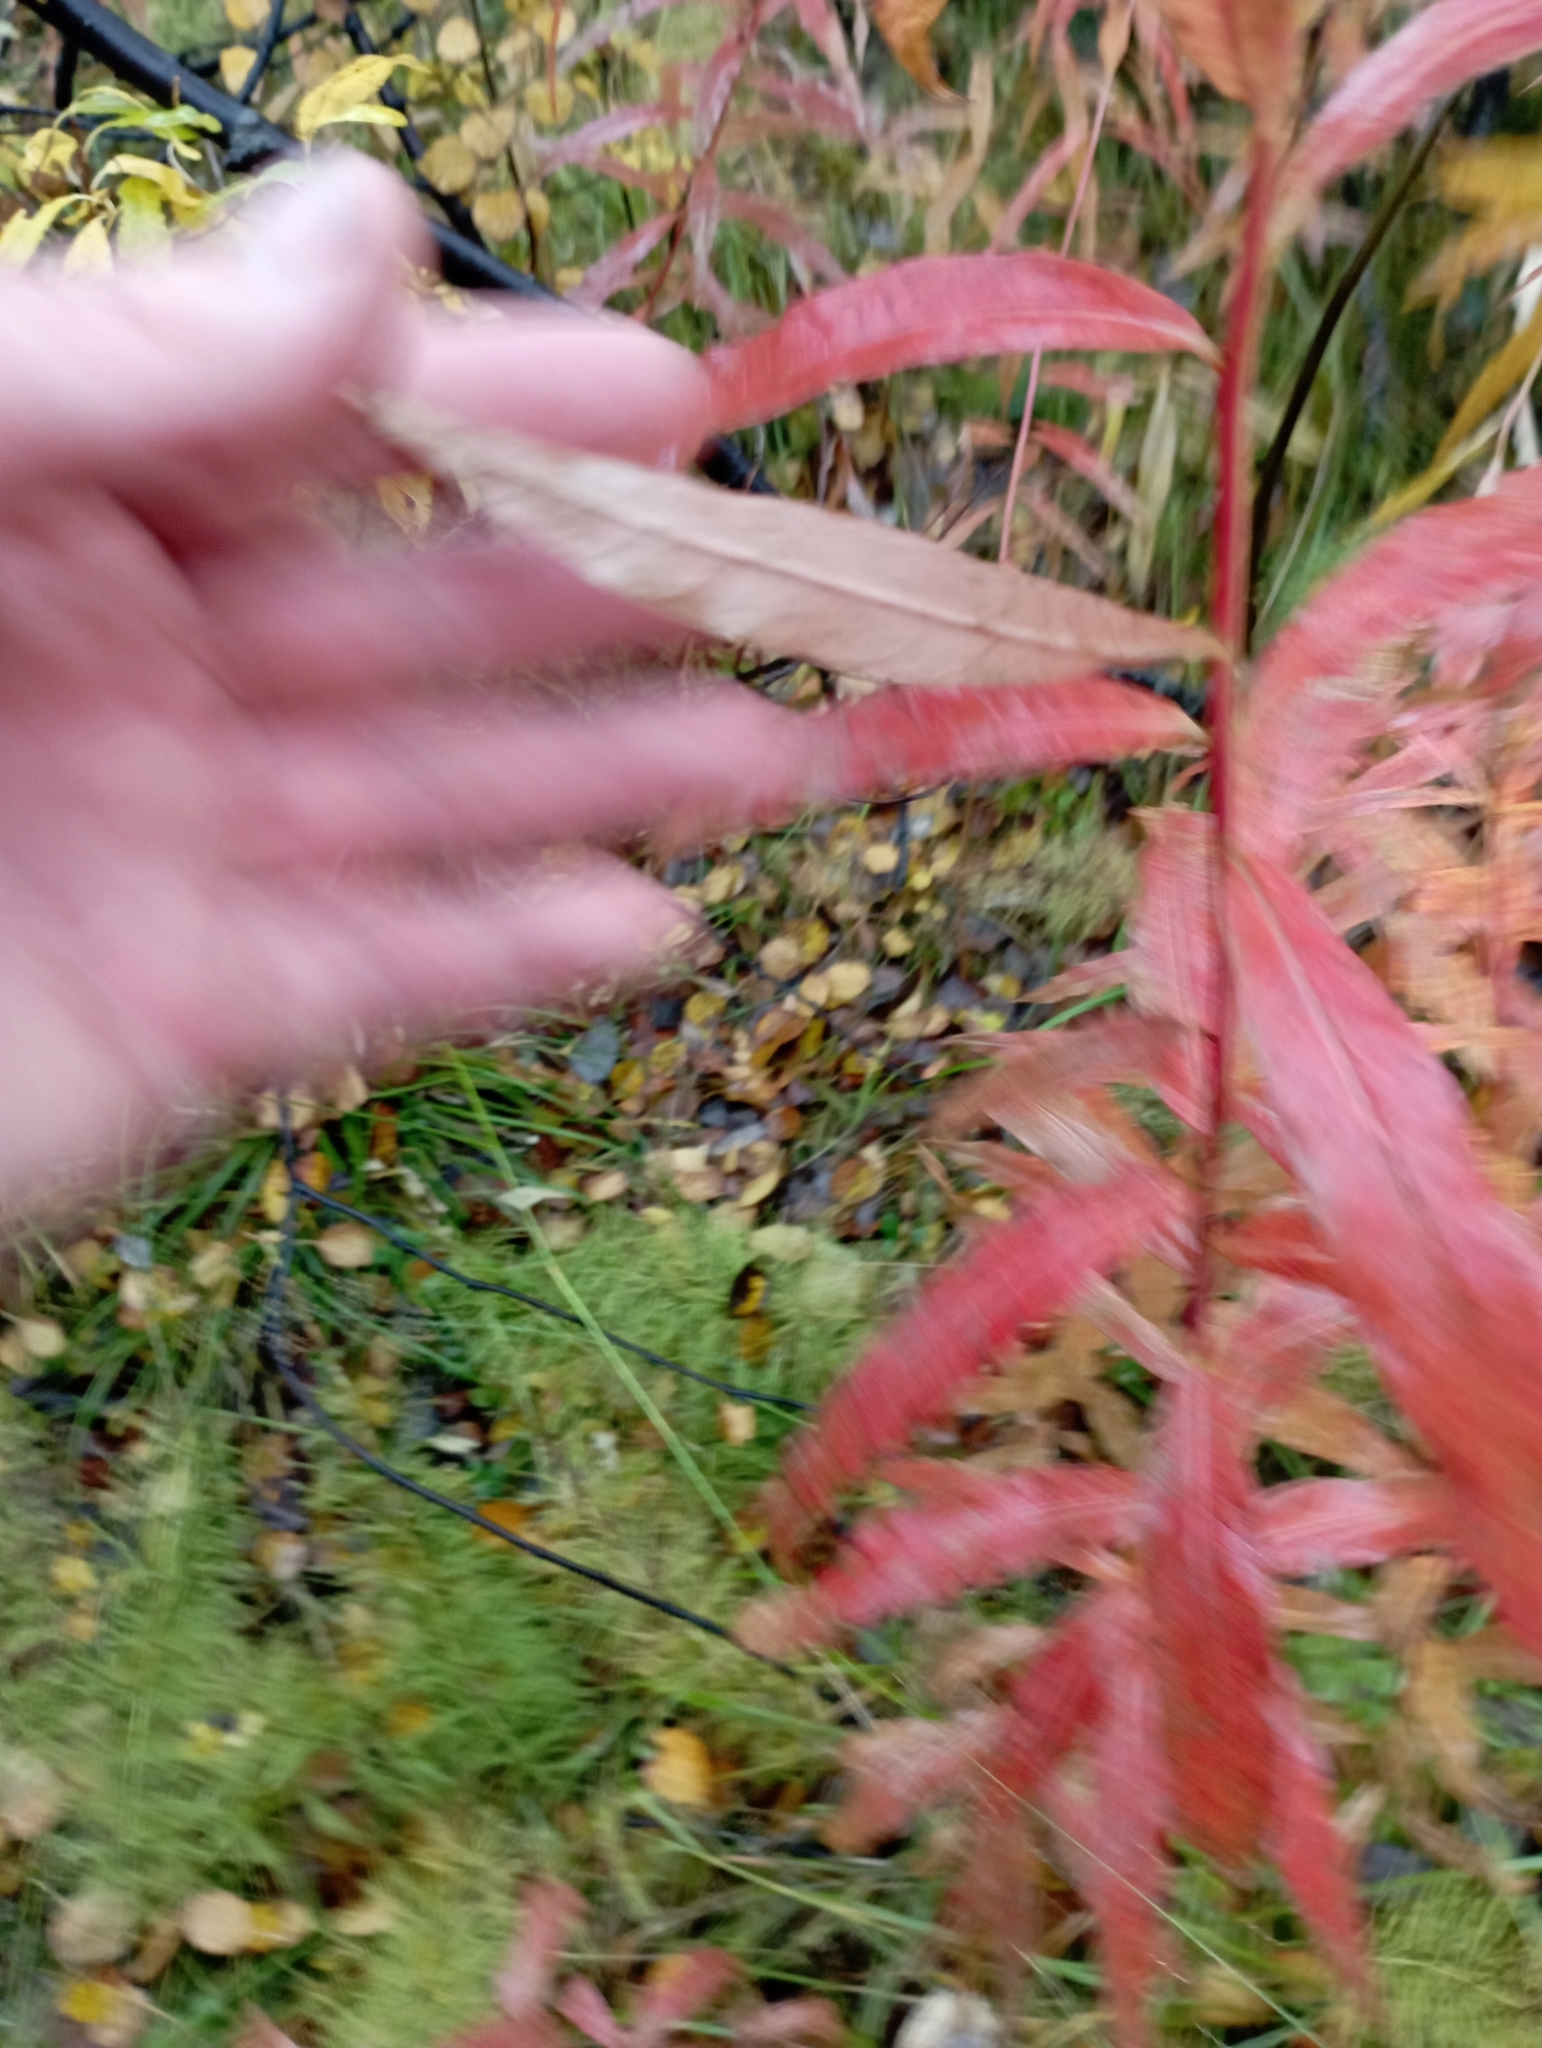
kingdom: Plantae
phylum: Tracheophyta
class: Magnoliopsida
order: Myrtales
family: Onagraceae
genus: Chamaenerion
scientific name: Chamaenerion angustifolium
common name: Fireweed
